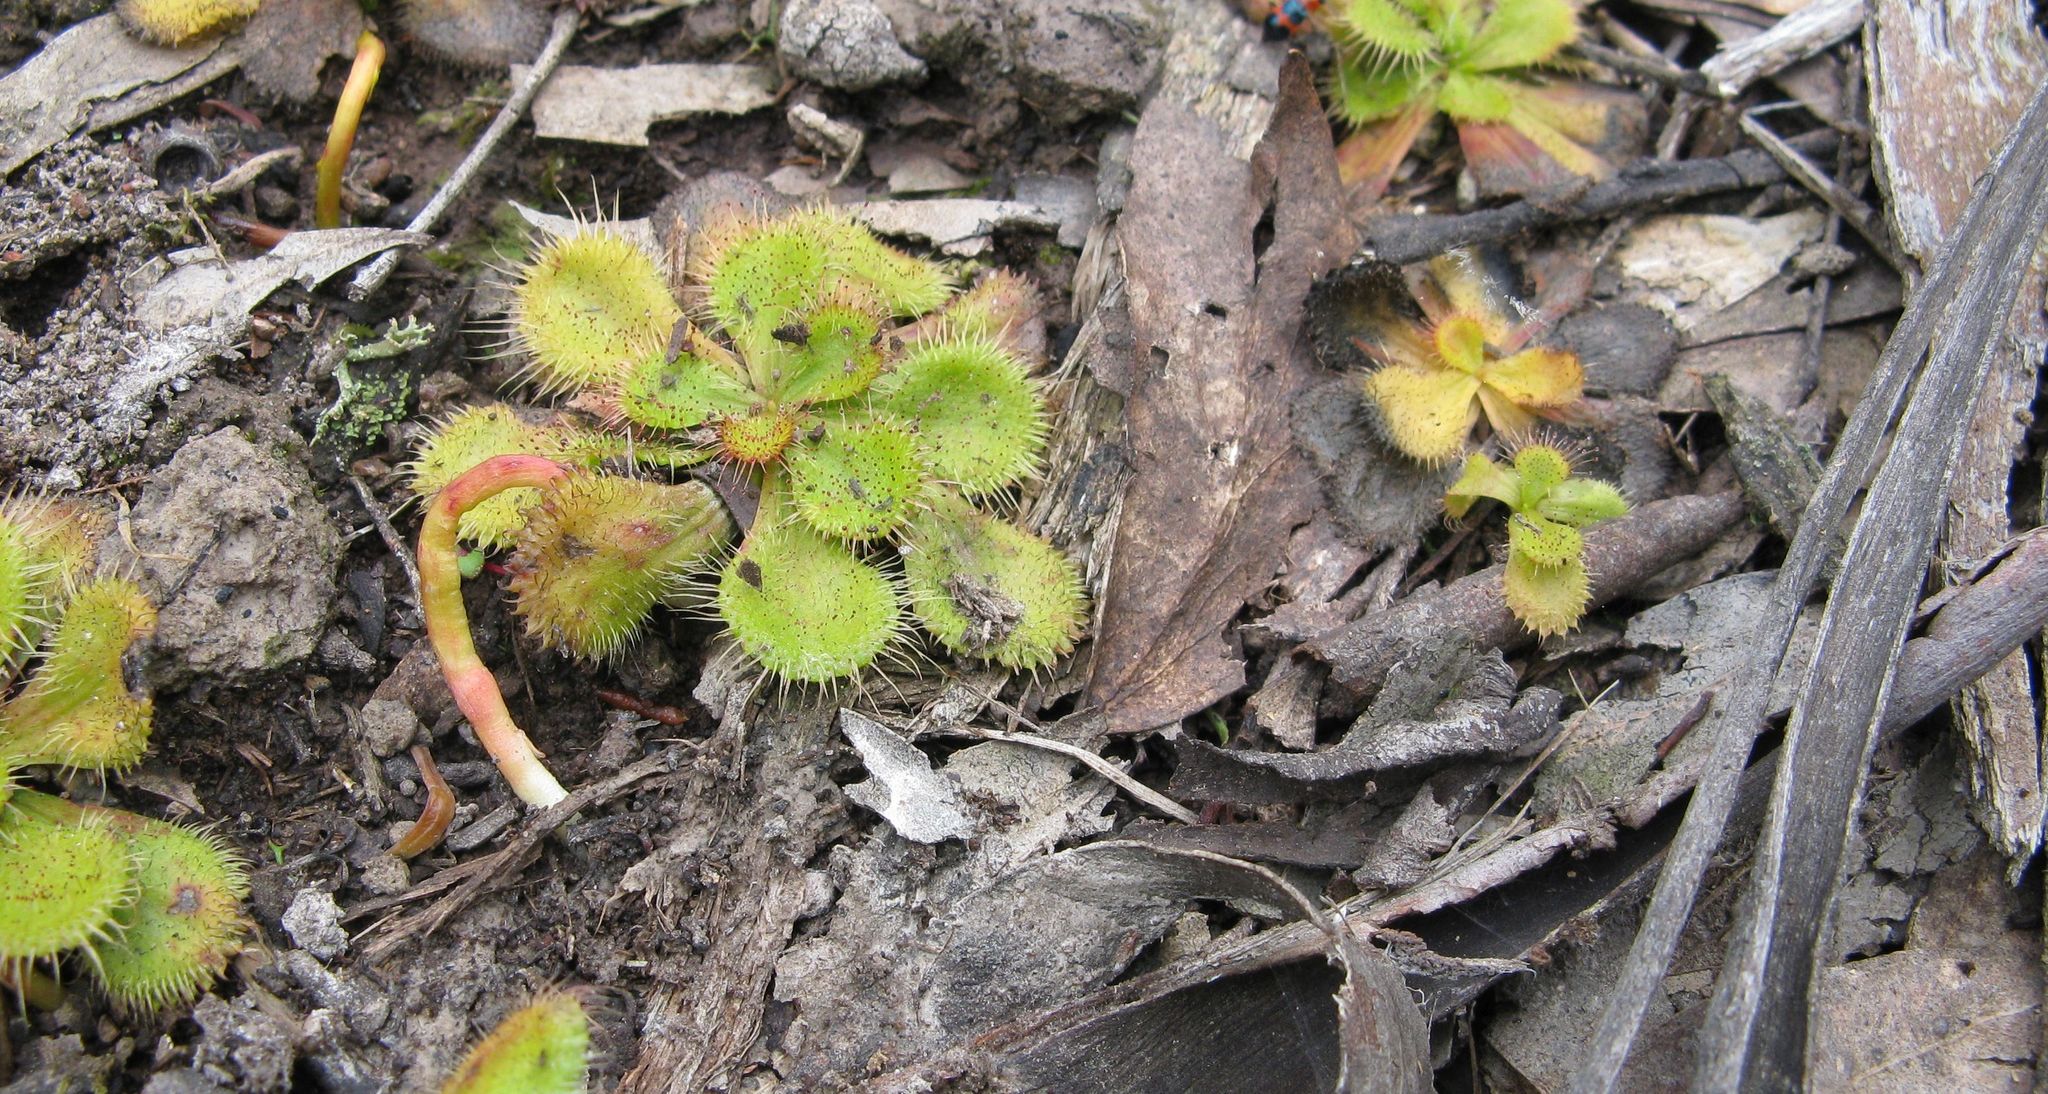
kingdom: Plantae
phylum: Tracheophyta
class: Magnoliopsida
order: Caryophyllales
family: Droseraceae
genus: Drosera
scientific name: Drosera aberrans
